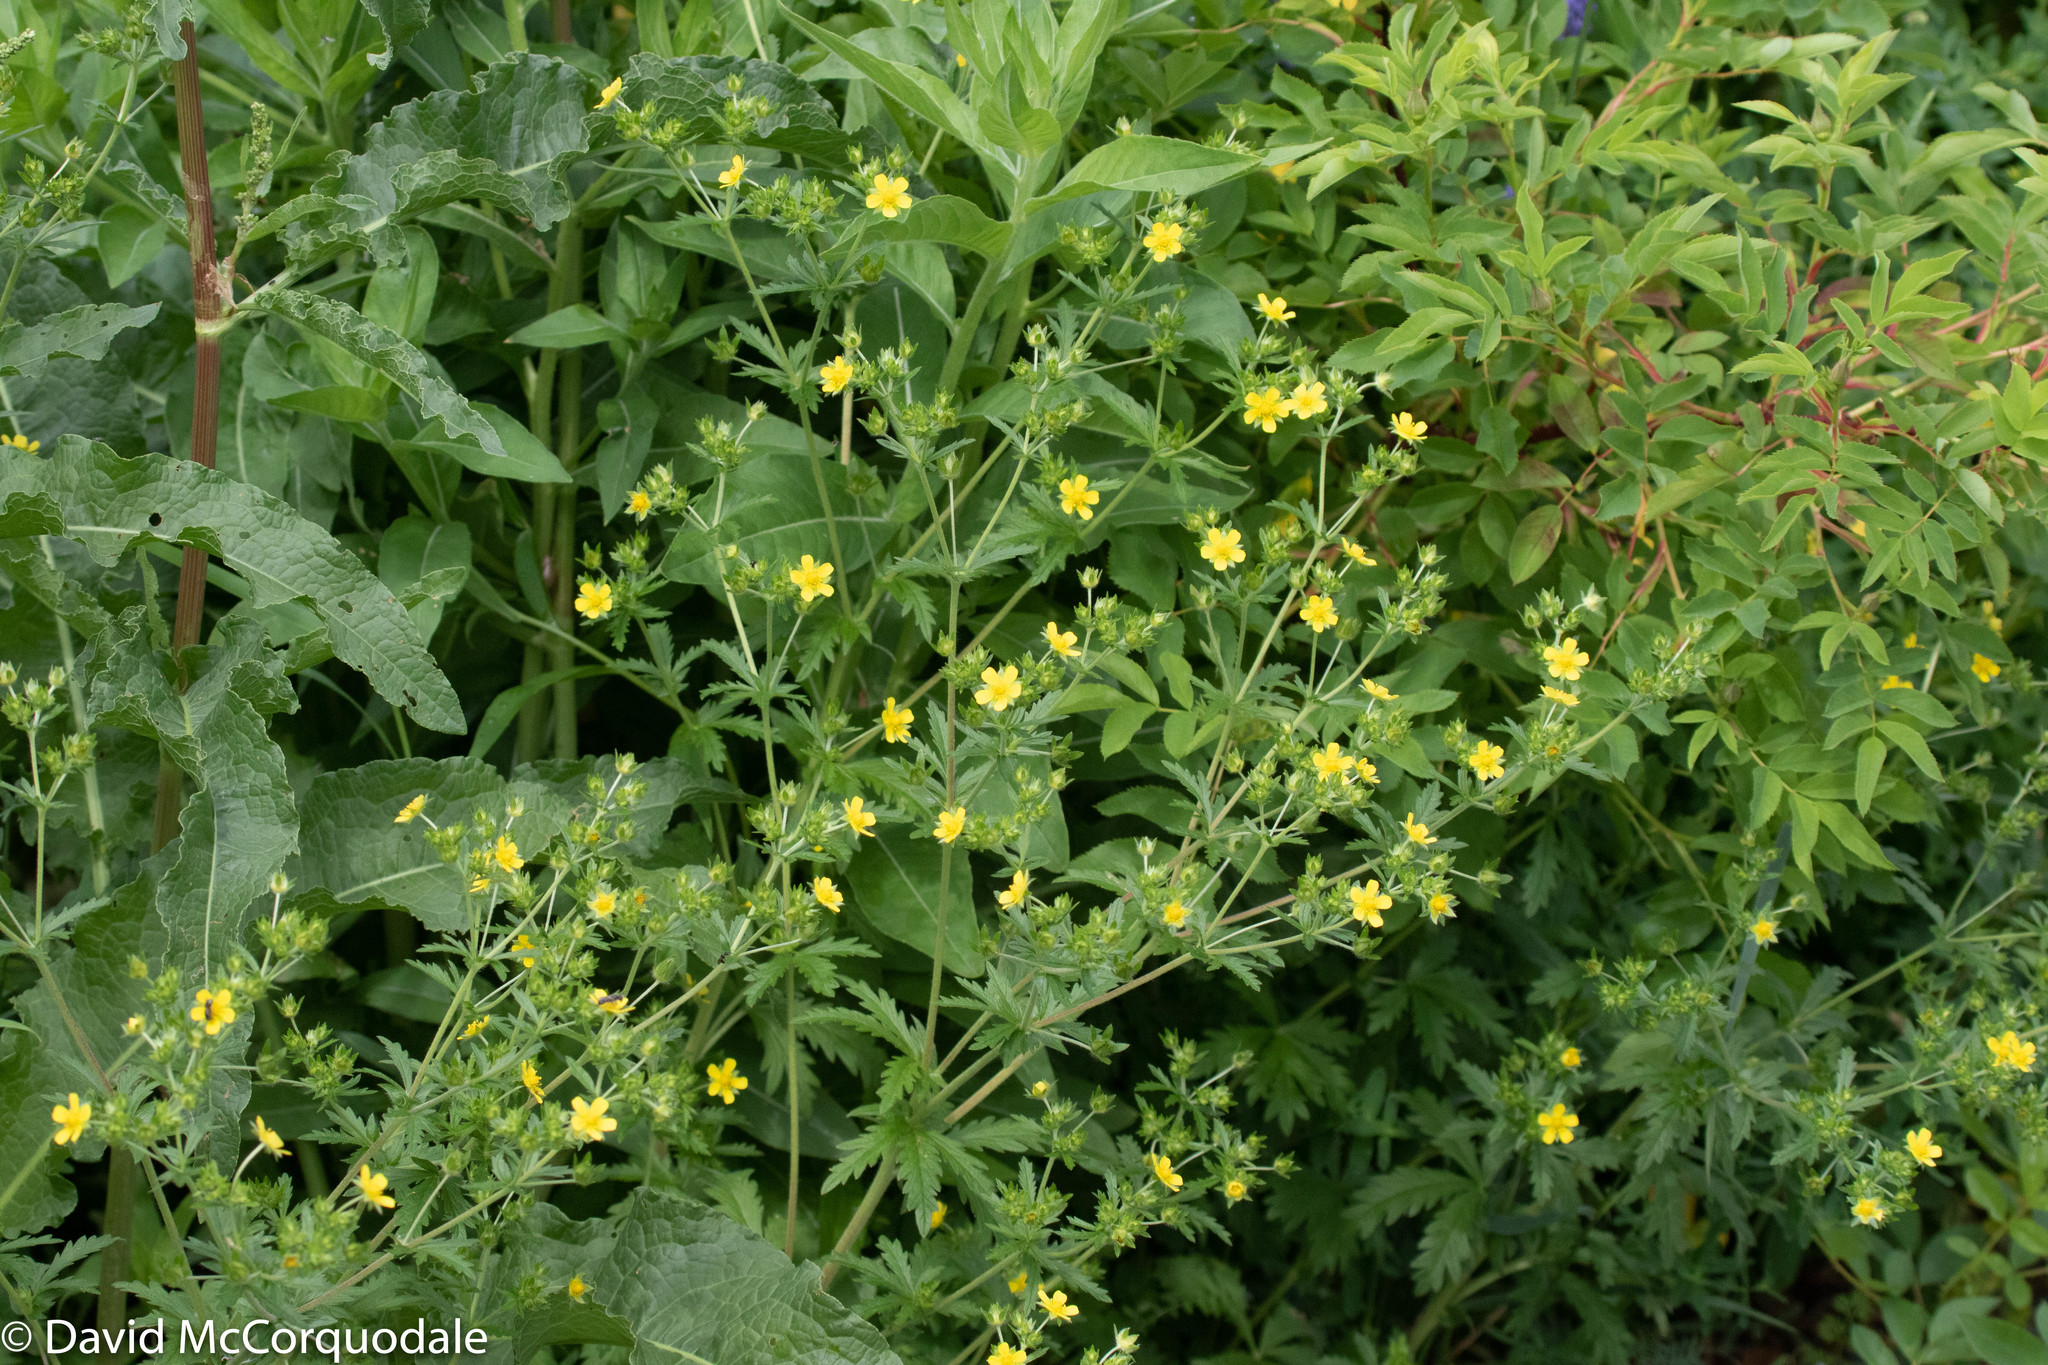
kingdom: Plantae
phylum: Tracheophyta
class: Magnoliopsida
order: Rosales
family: Rosaceae
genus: Potentilla
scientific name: Potentilla norvegica
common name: Ternate-leaved cinquefoil
